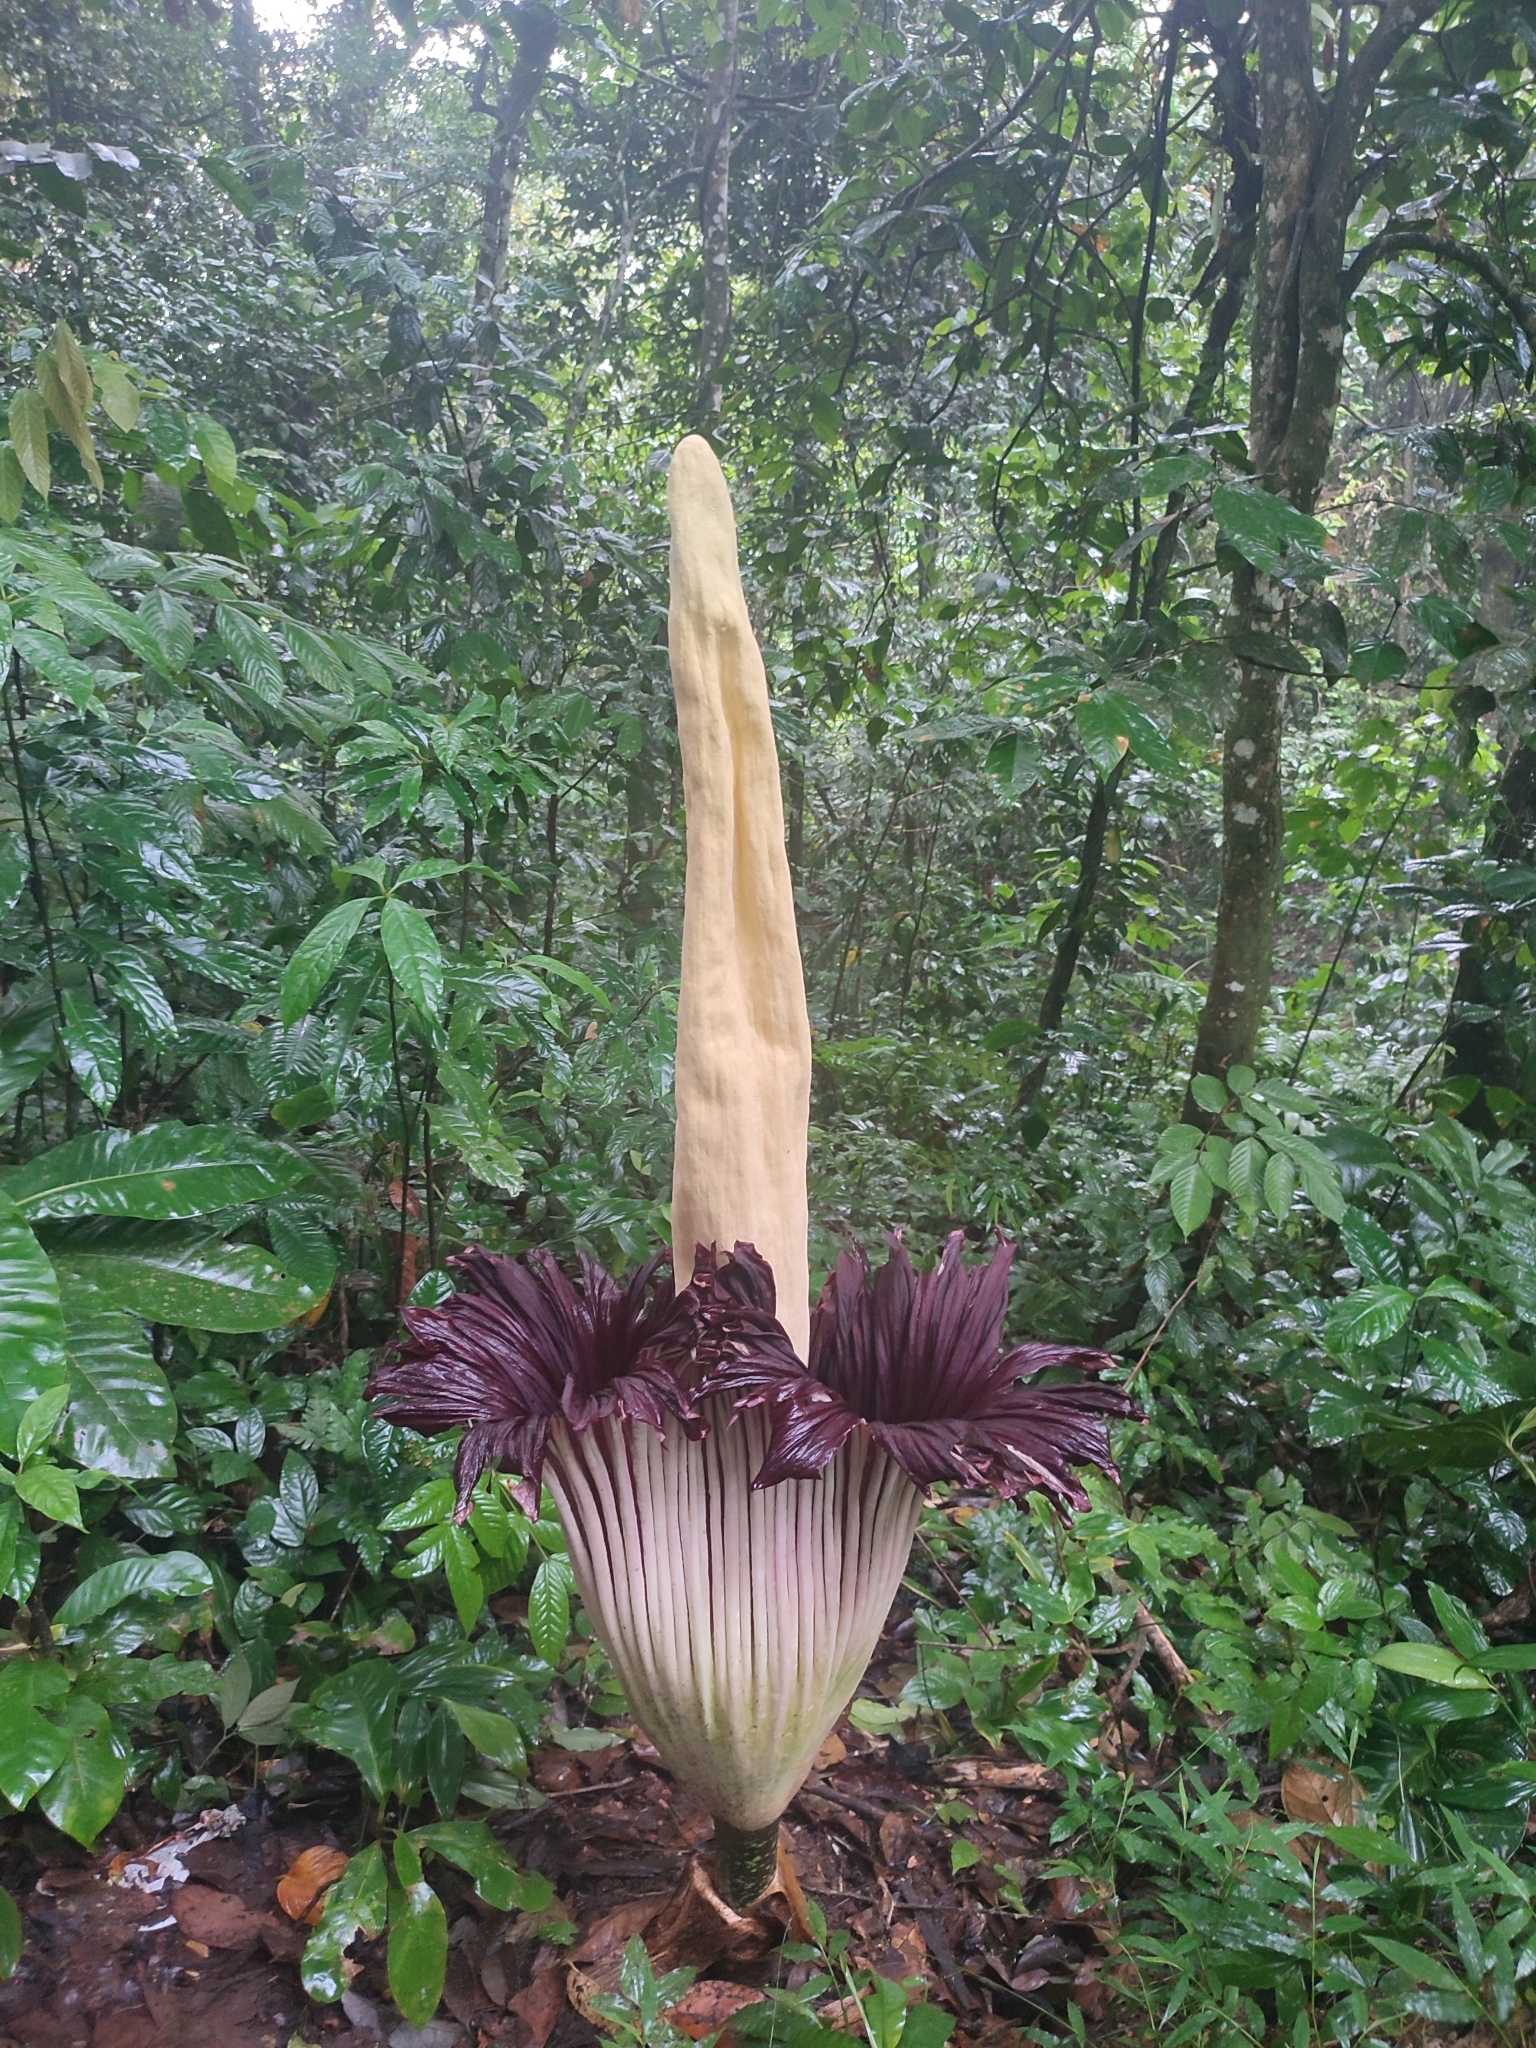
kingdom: Plantae
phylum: Tracheophyta
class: Liliopsida
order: Alismatales
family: Araceae
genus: Amorphophallus
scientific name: Amorphophallus titanum
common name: Titan arum
